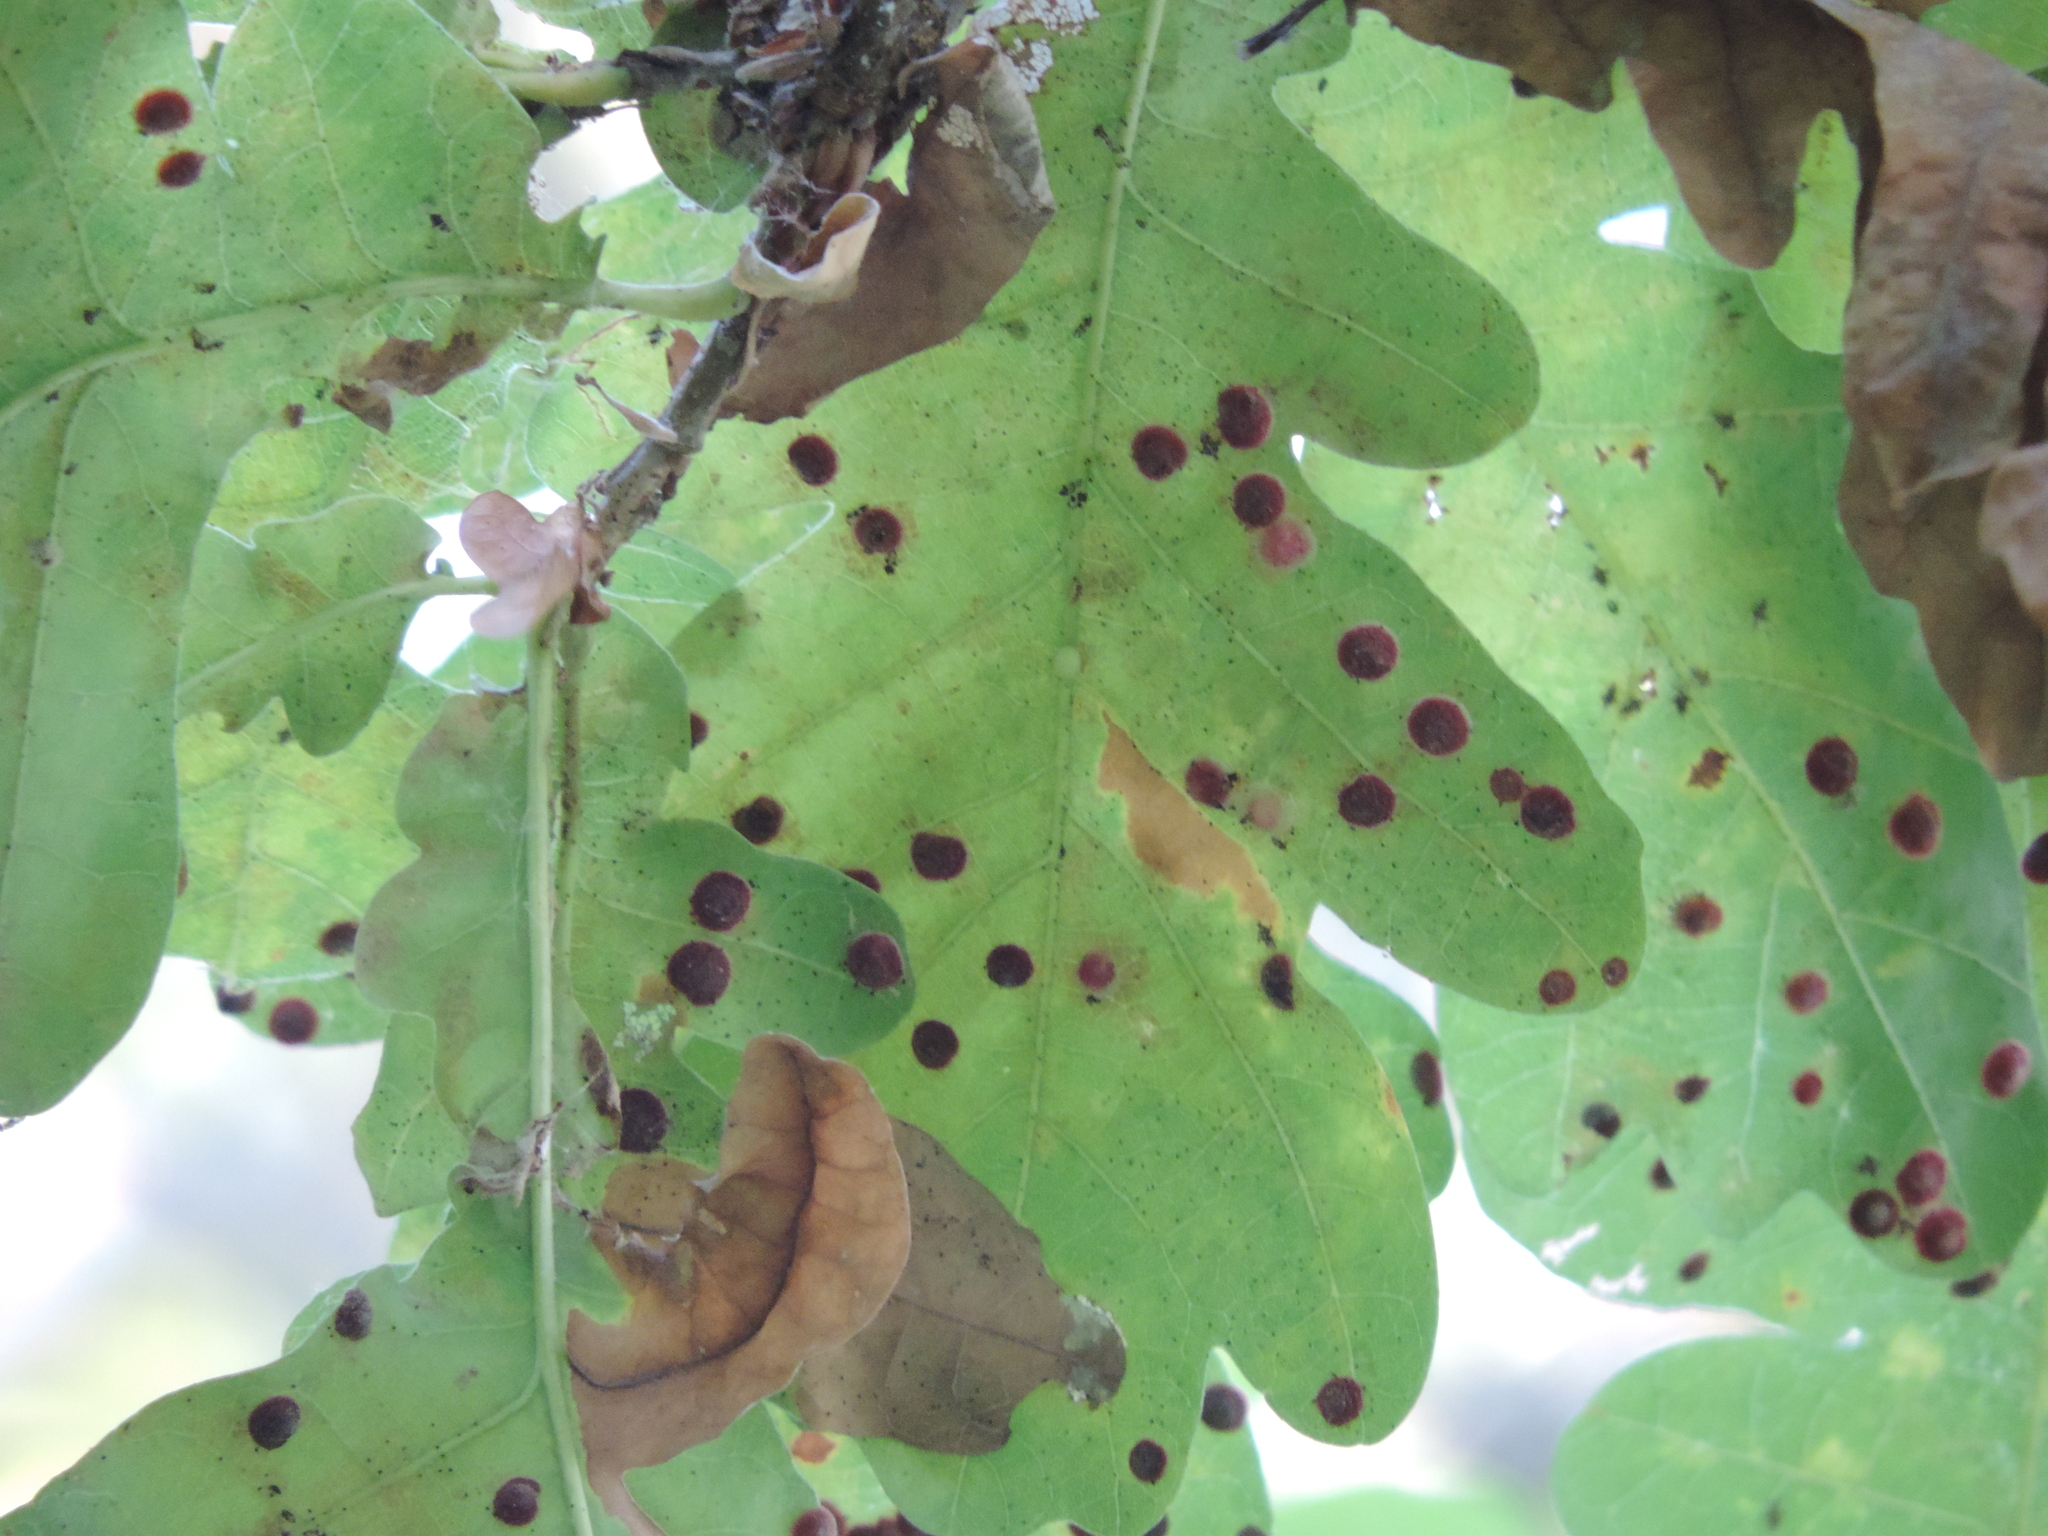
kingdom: Animalia
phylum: Arthropoda
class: Insecta
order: Hymenoptera
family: Cynipidae
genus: Neuroterus
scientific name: Neuroterus quercusbaccarum
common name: Common spangle gall
